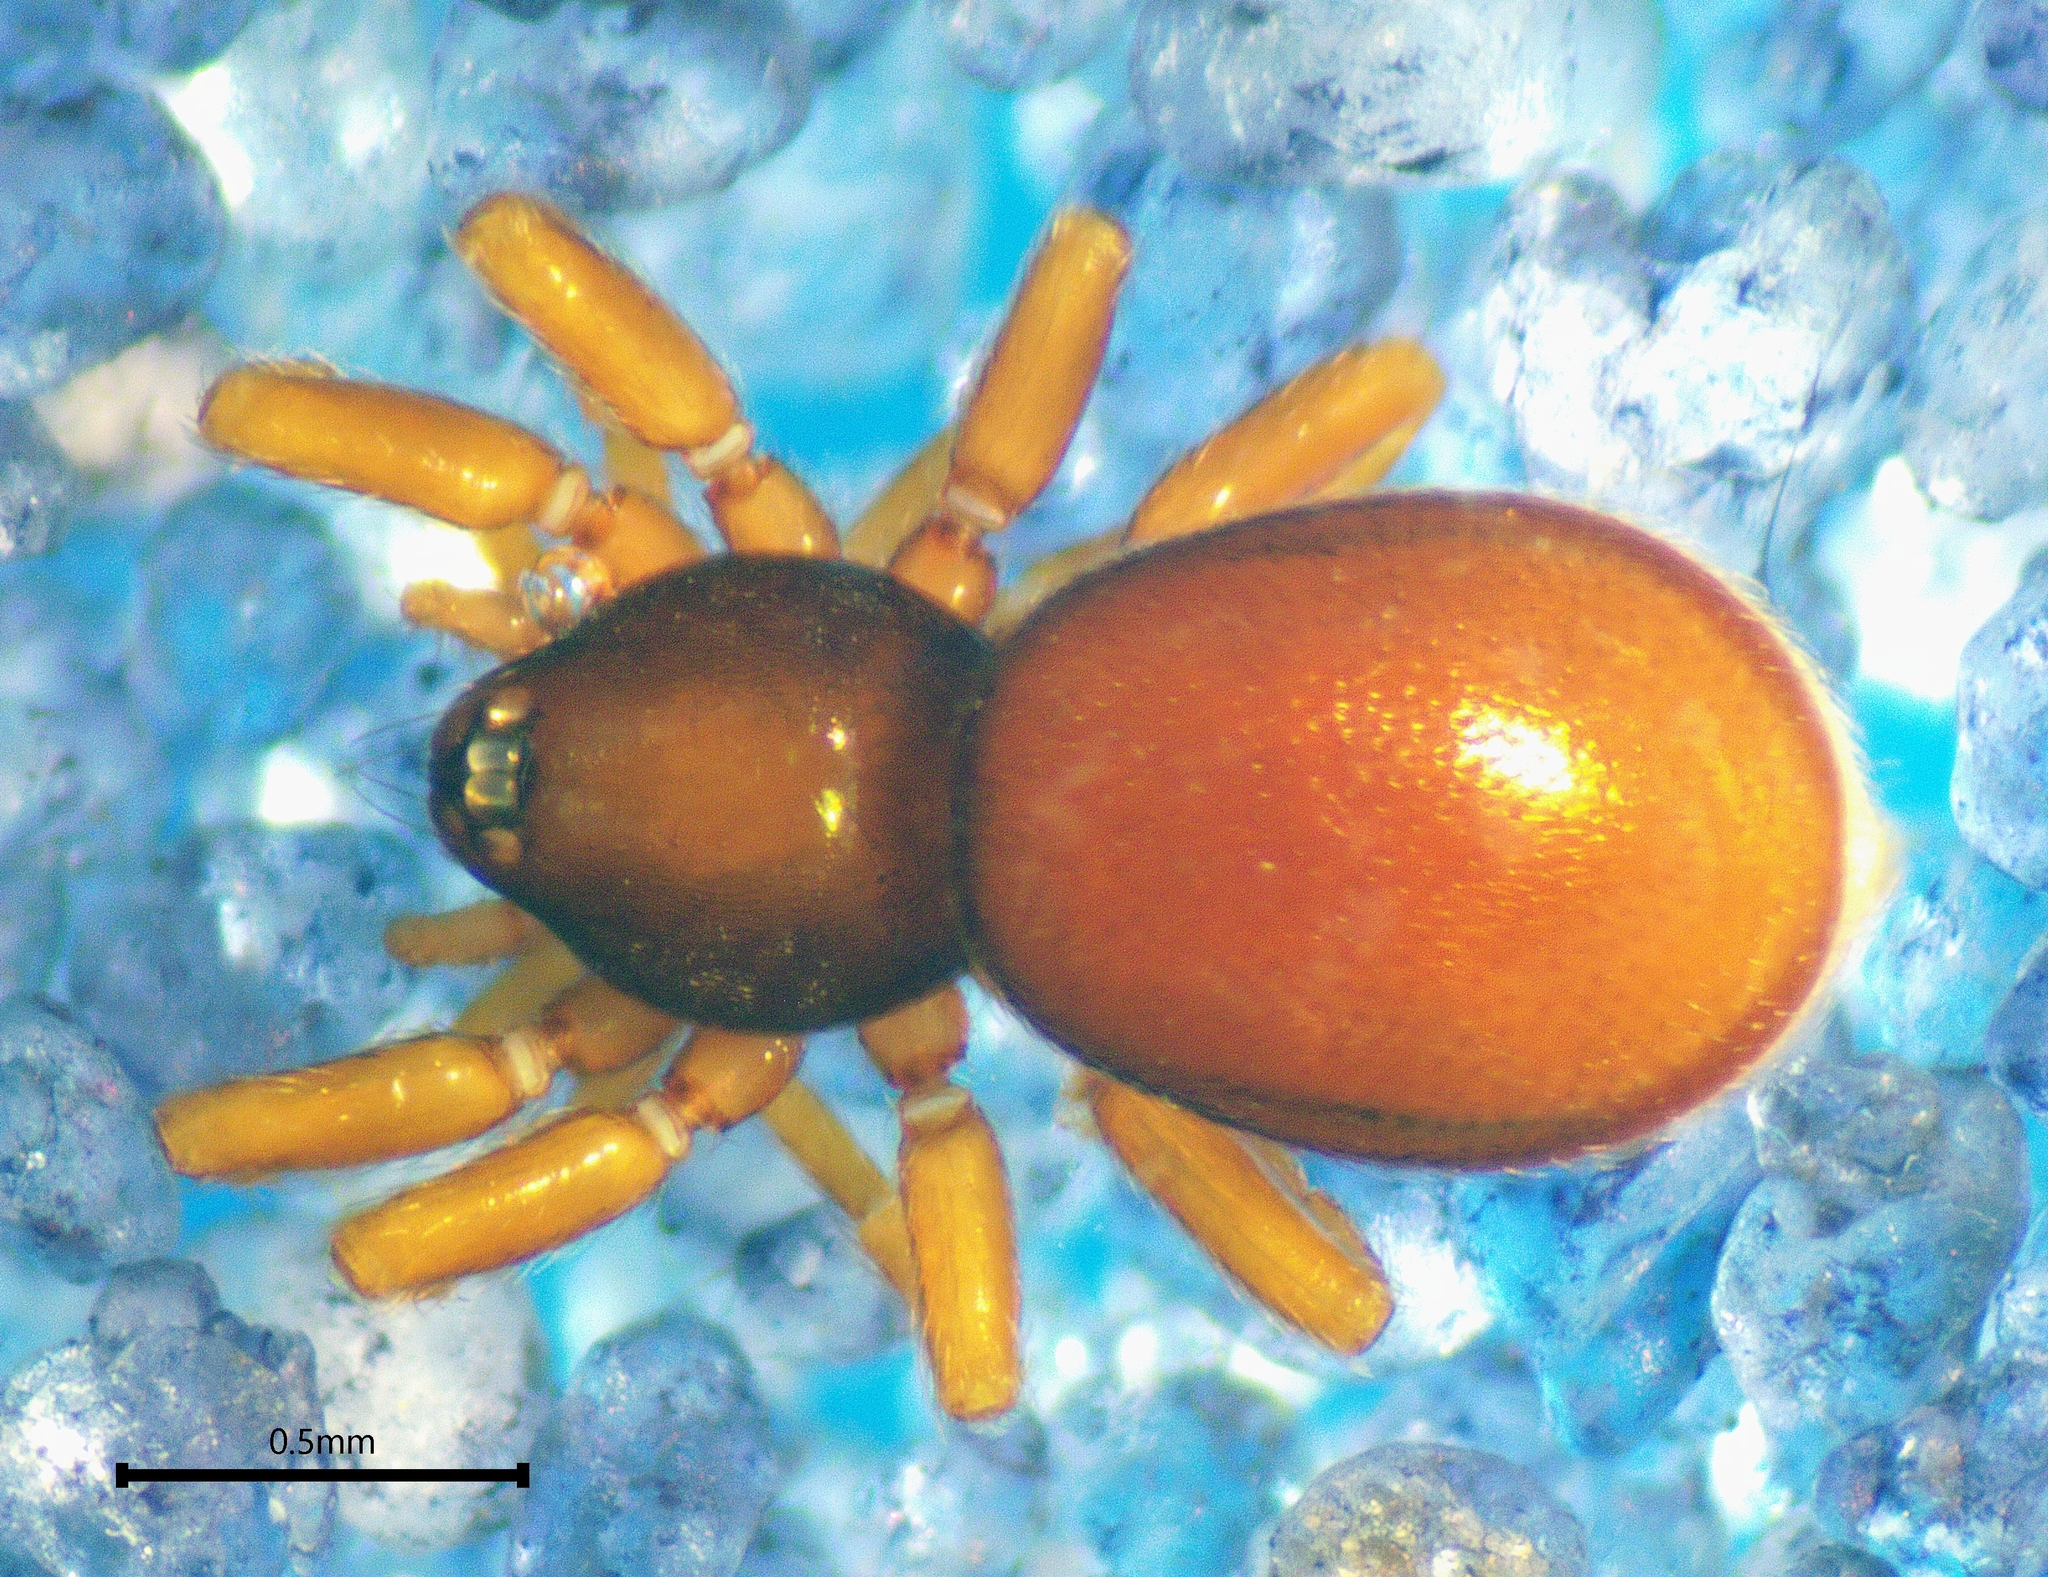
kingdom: Animalia
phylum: Arthropoda
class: Arachnida
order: Araneae
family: Oonopidae
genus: Opopaea
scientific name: Opopaea
